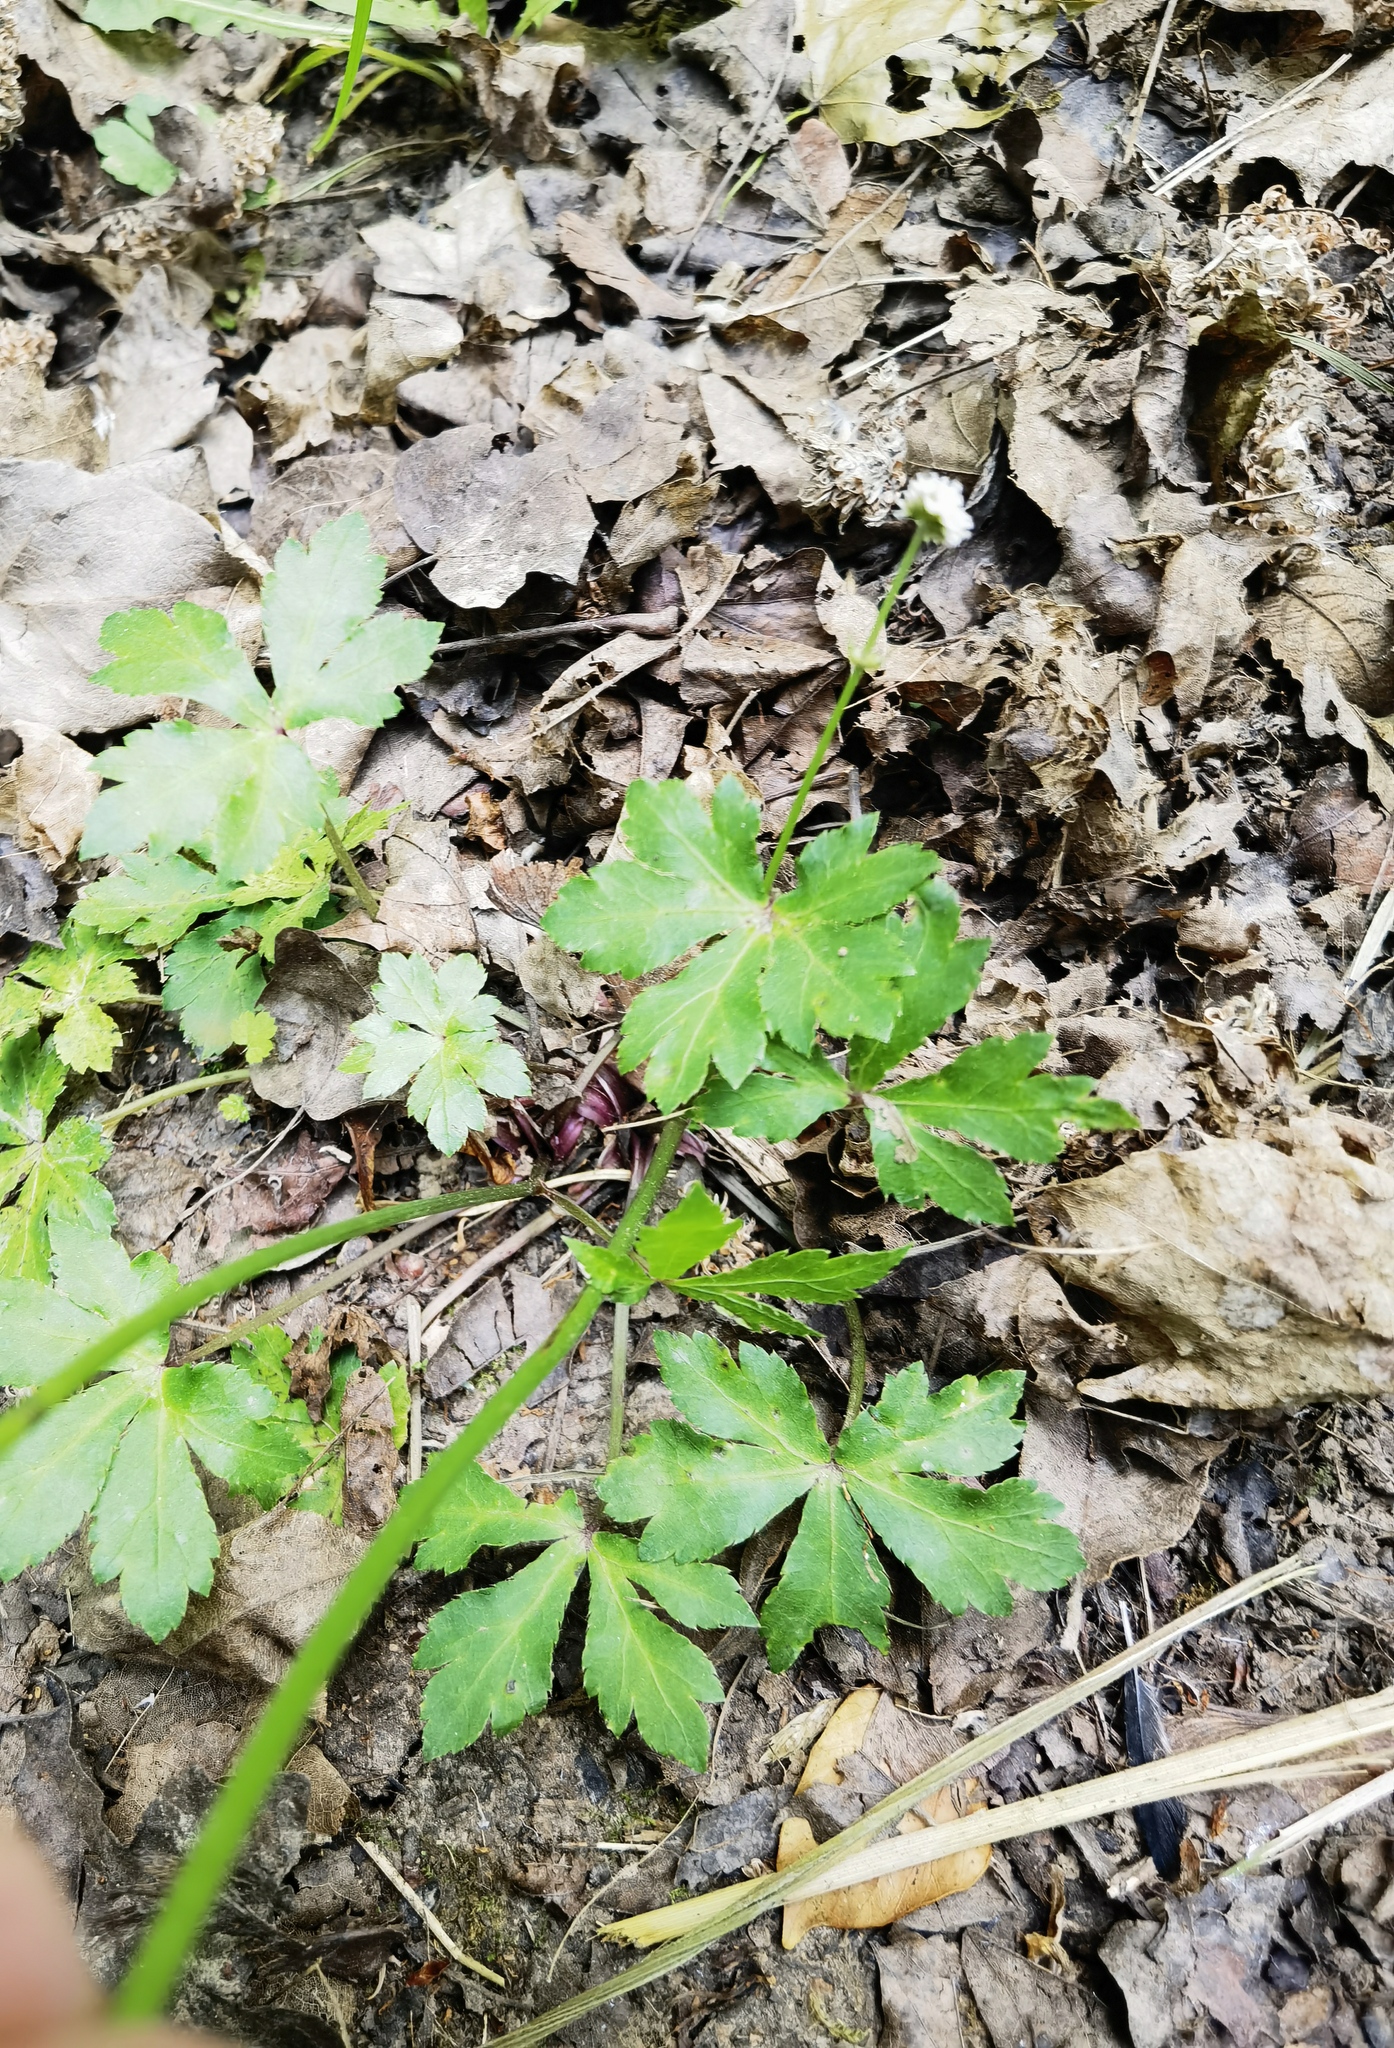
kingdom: Plantae
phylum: Tracheophyta
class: Magnoliopsida
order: Apiales
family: Apiaceae
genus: Sanicula
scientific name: Sanicula europaea
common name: Sanicle
